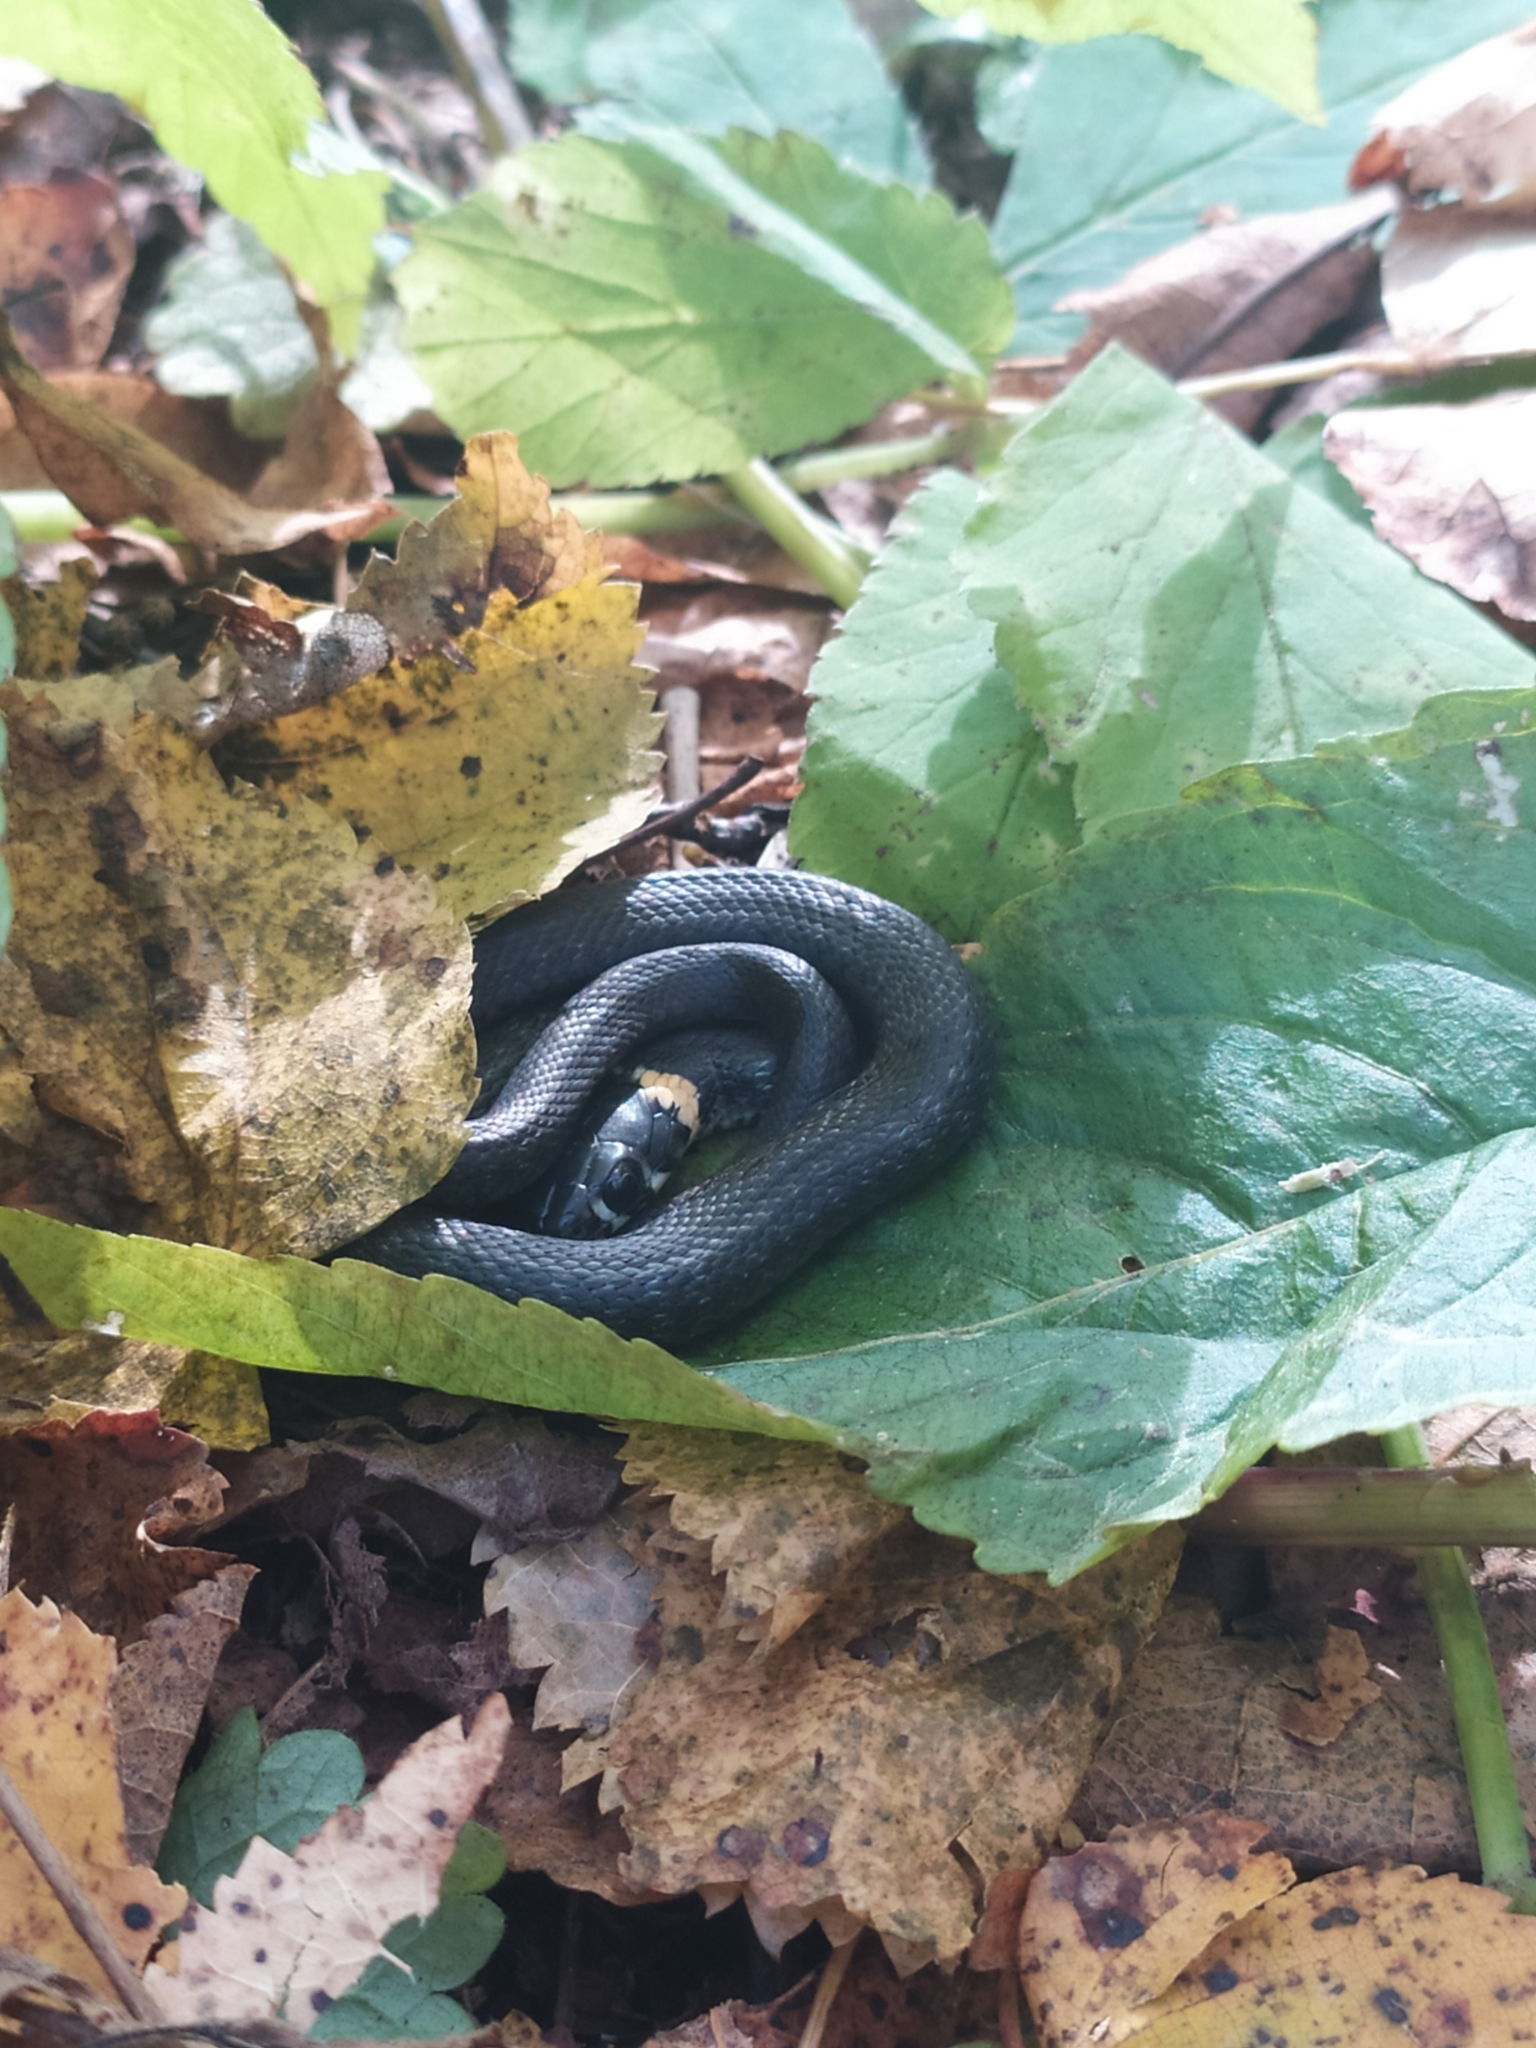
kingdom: Animalia
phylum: Chordata
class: Squamata
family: Colubridae
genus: Natrix
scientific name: Natrix natrix
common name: Grass snake
